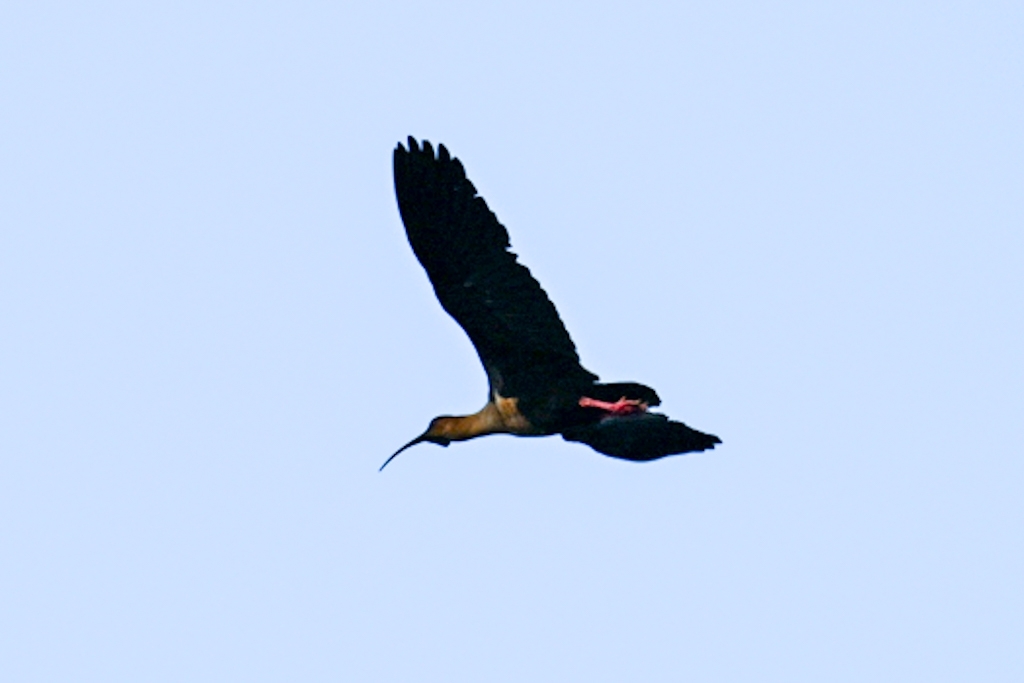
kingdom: Animalia
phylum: Chordata
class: Aves
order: Pelecaniformes
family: Threskiornithidae
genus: Theristicus
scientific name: Theristicus melanopis
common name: Black-faced ibis
